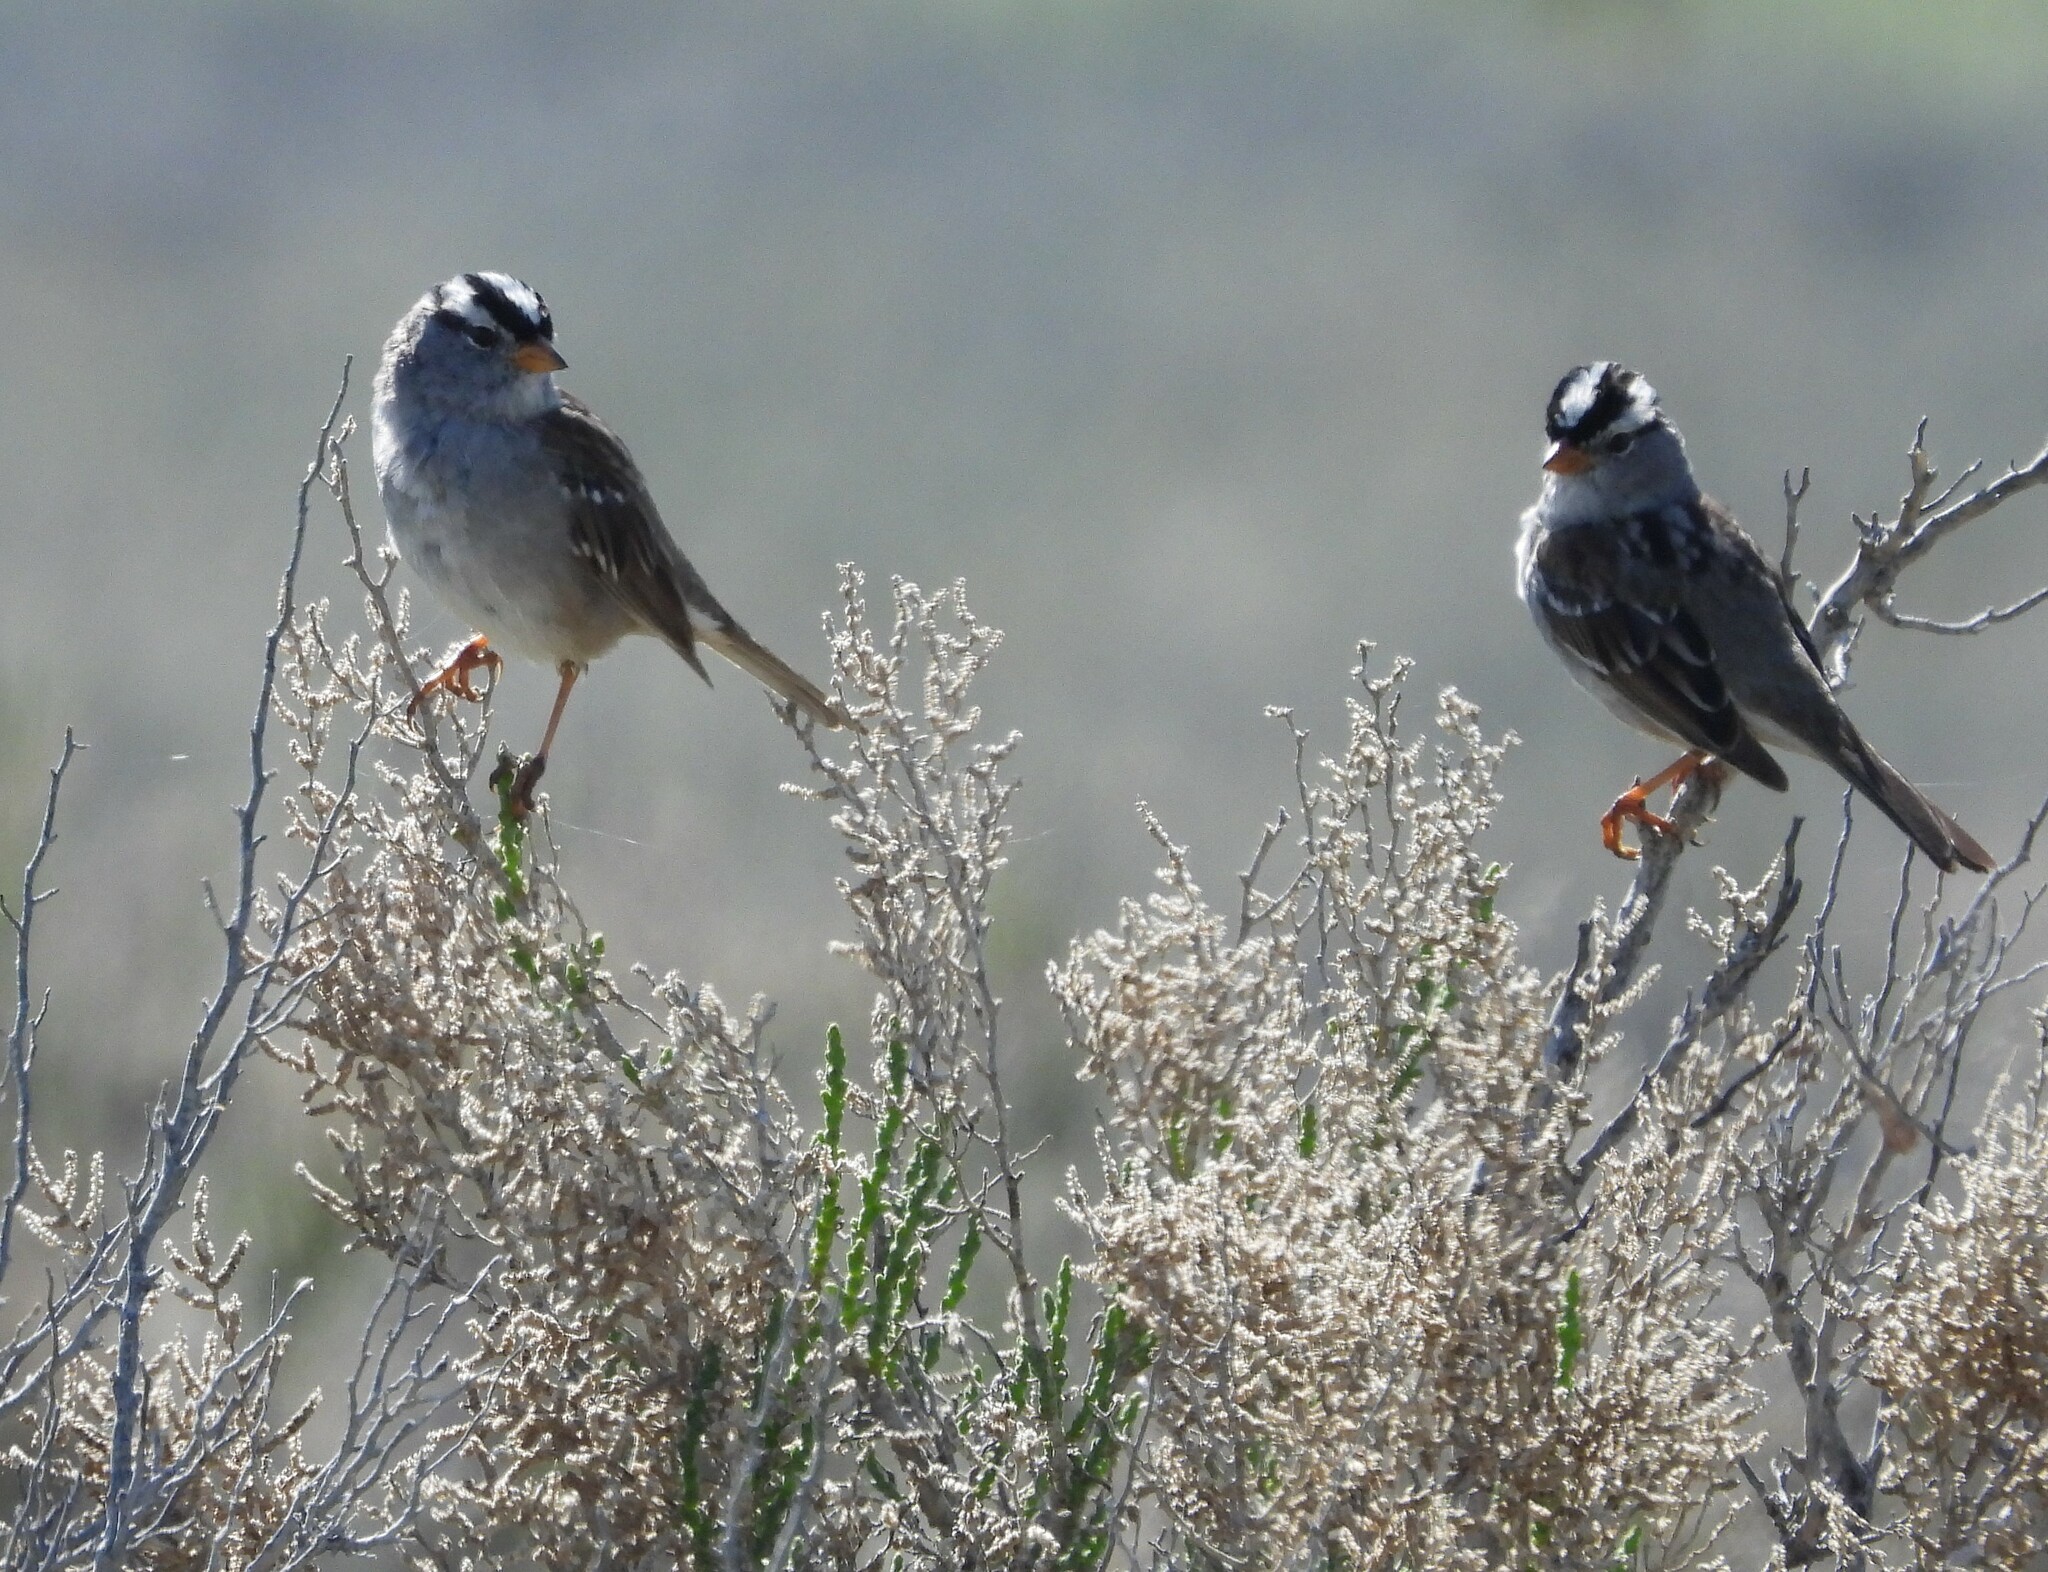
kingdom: Animalia
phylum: Chordata
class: Aves
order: Passeriformes
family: Passerellidae
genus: Zonotrichia
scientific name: Zonotrichia leucophrys
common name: White-crowned sparrow
